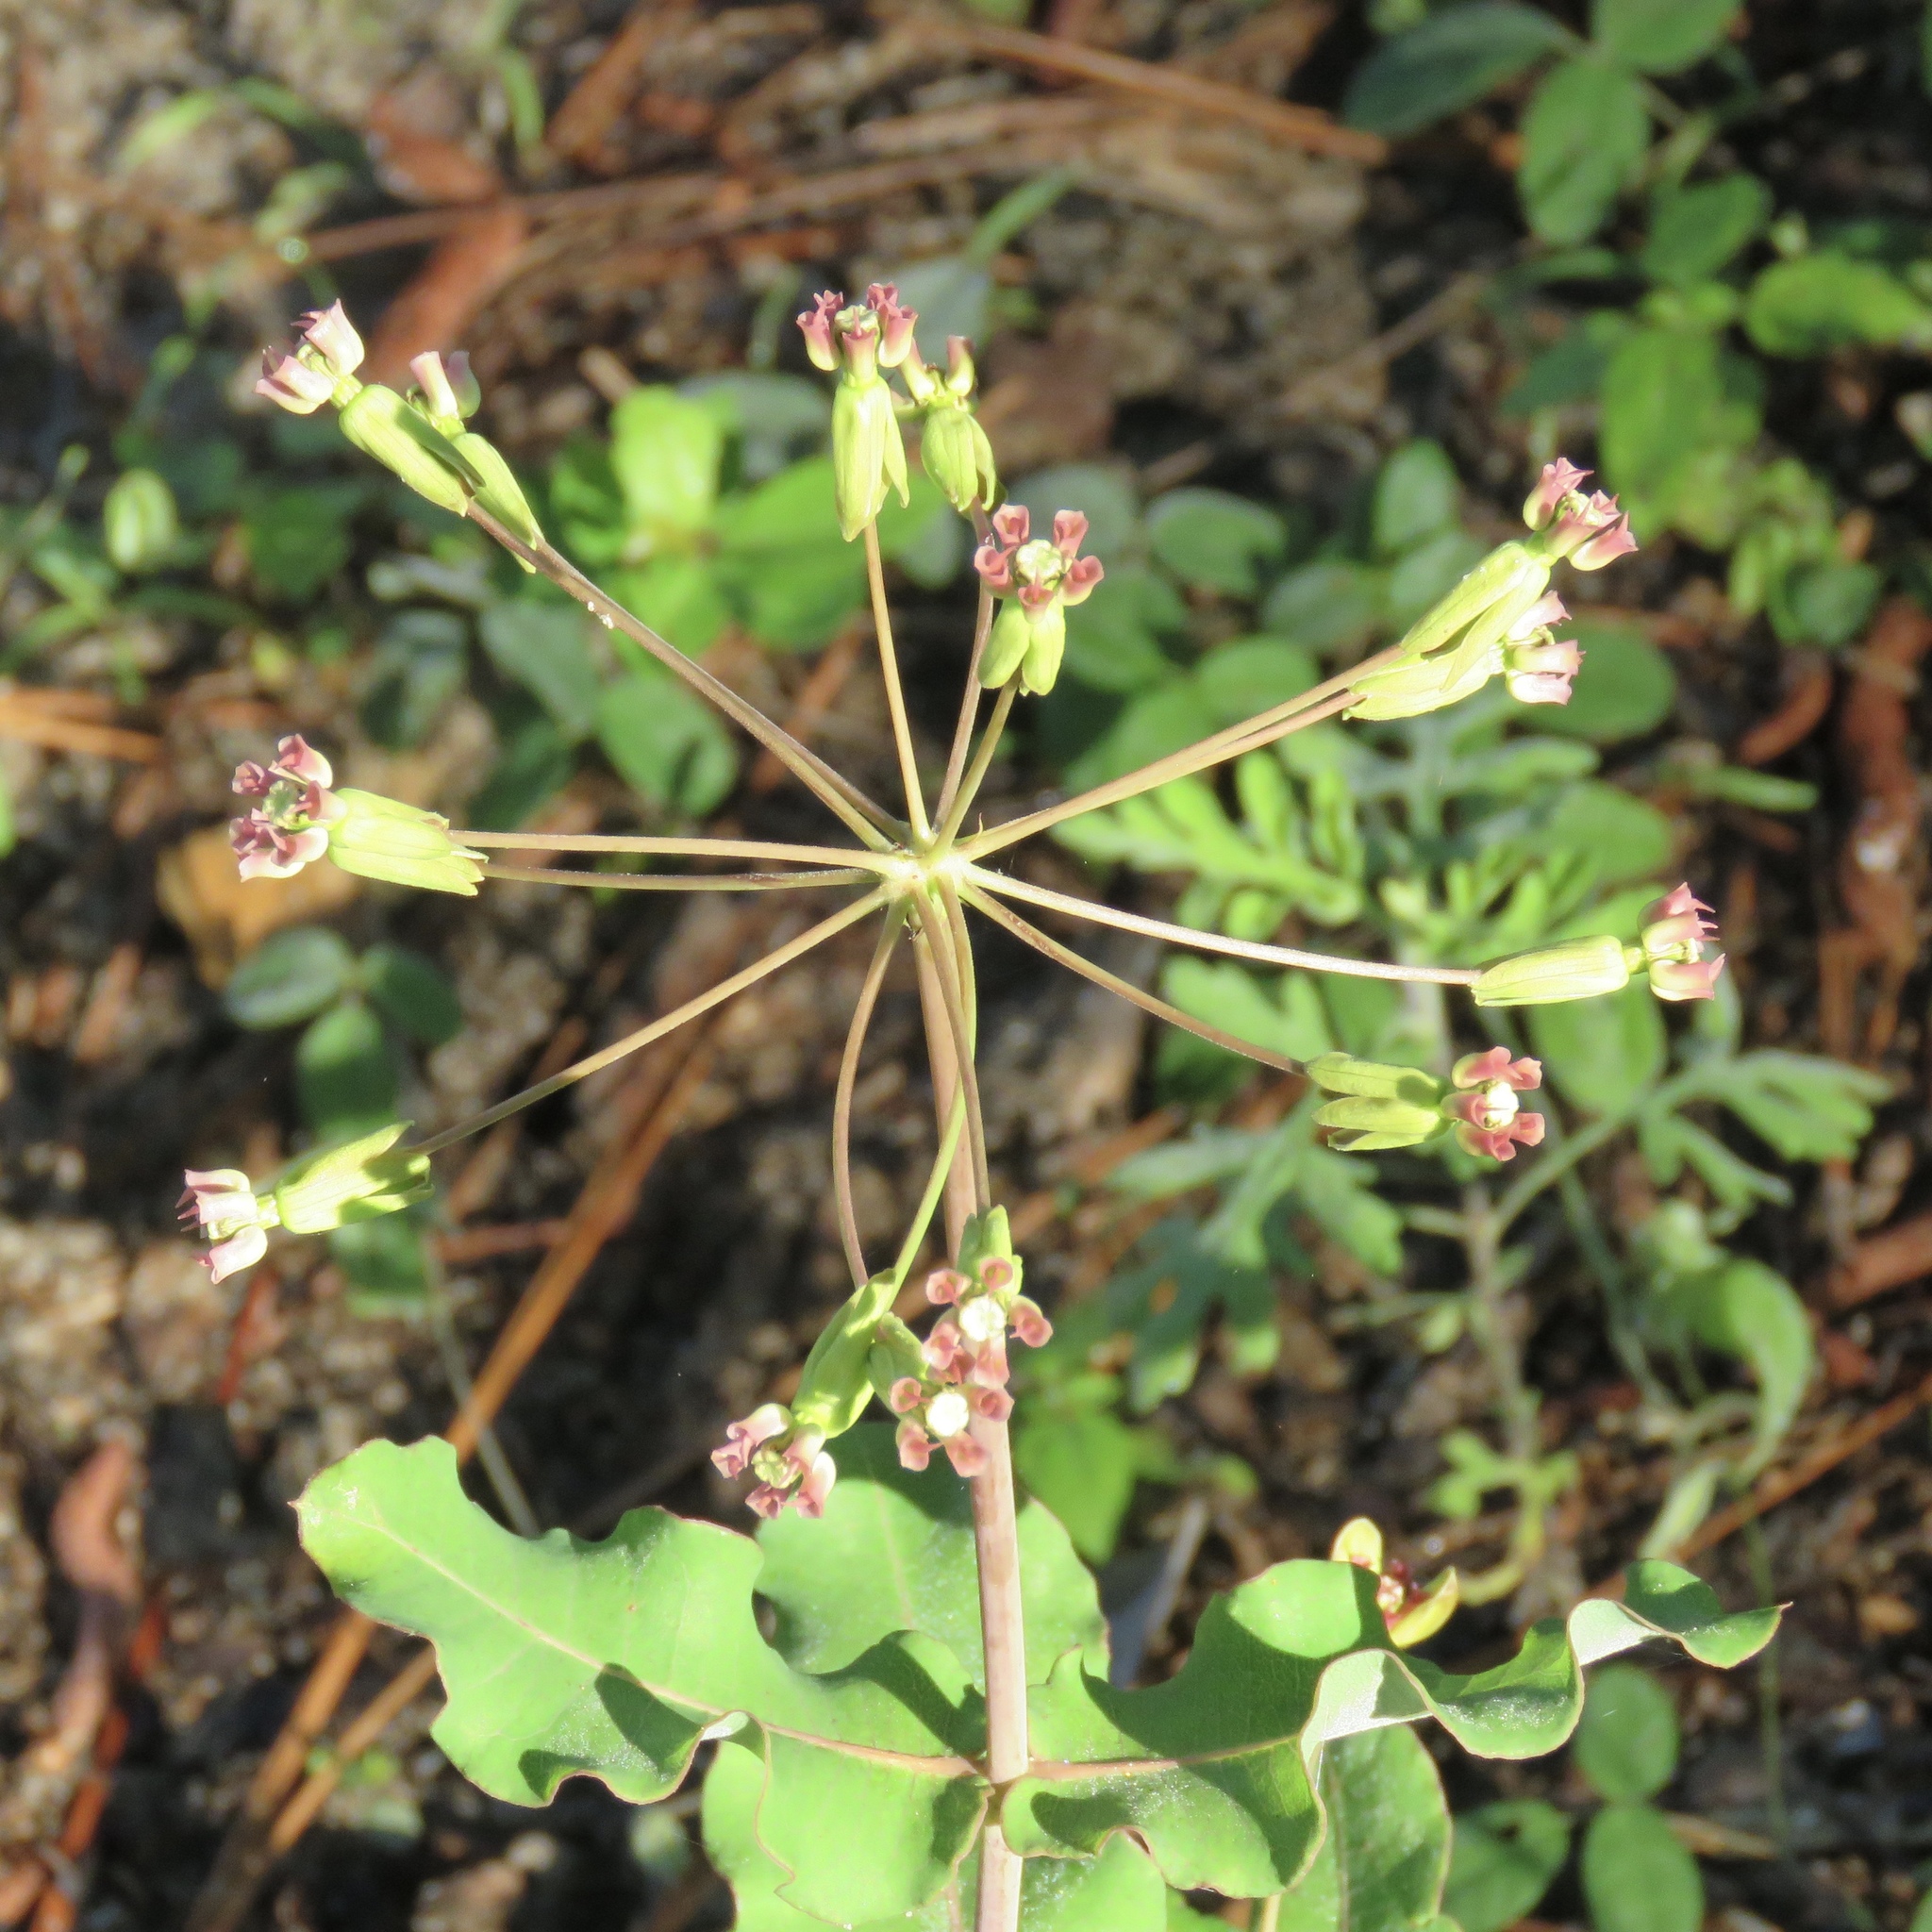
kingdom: Plantae
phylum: Tracheophyta
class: Magnoliopsida
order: Gentianales
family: Apocynaceae
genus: Asclepias
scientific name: Asclepias amplexicaulis
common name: Blunt-leaf milkweed
